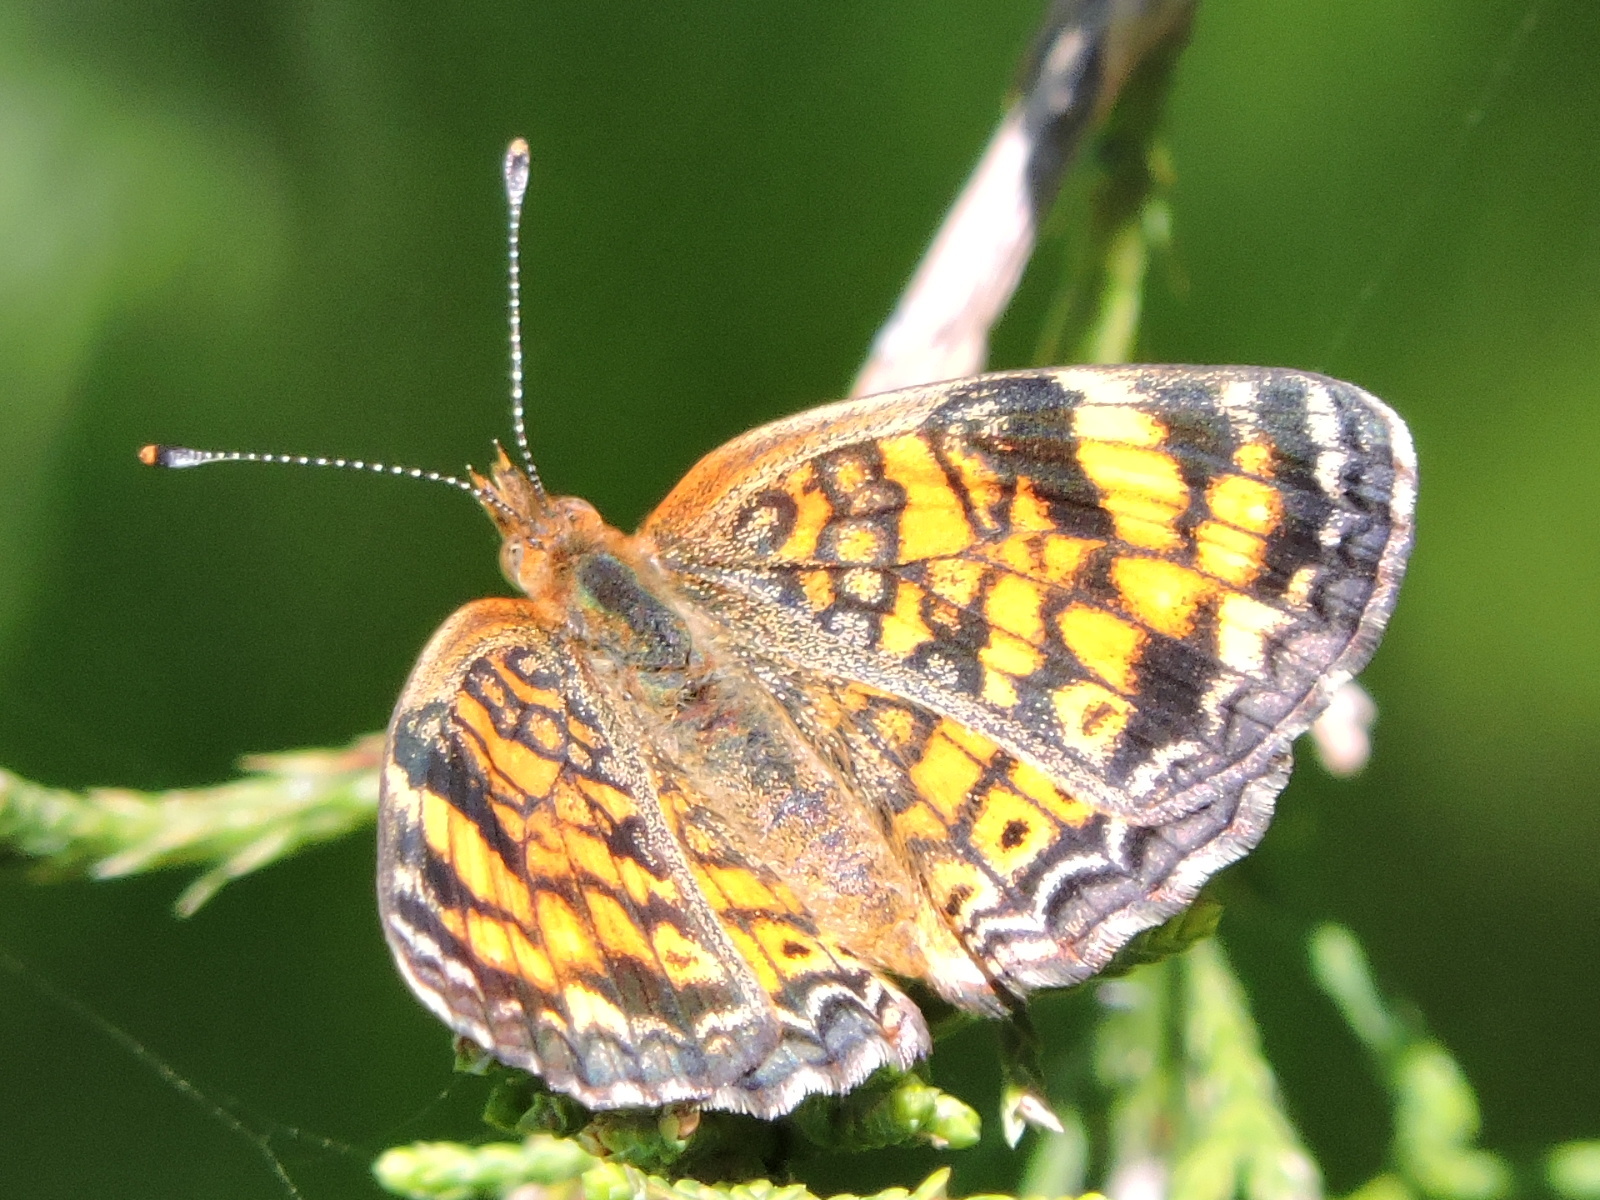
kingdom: Animalia
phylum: Arthropoda
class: Insecta
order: Lepidoptera
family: Nymphalidae
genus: Phyciodes
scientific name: Phyciodes tharos
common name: Pearl crescent
